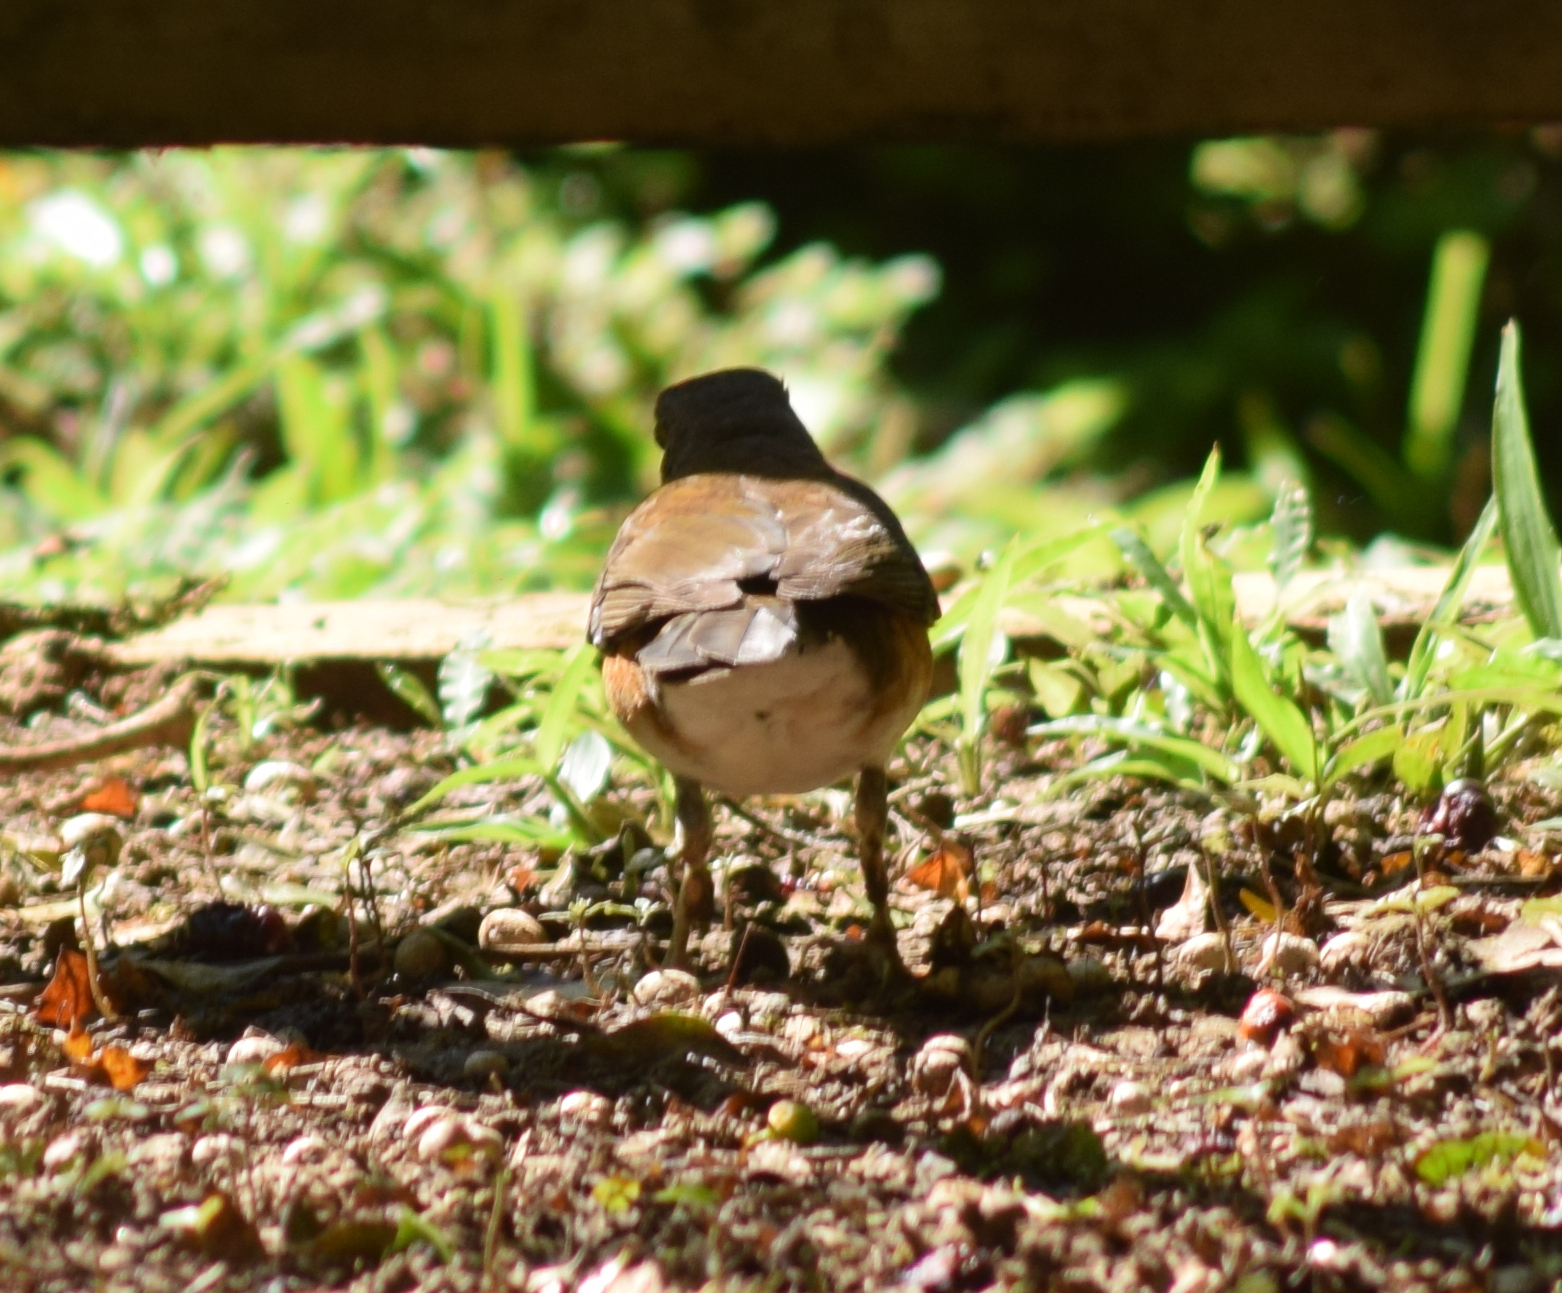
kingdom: Animalia
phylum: Chordata
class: Aves
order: Passeriformes
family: Turdidae
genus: Turdus
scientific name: Turdus albicollis
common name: White-necked thrush
